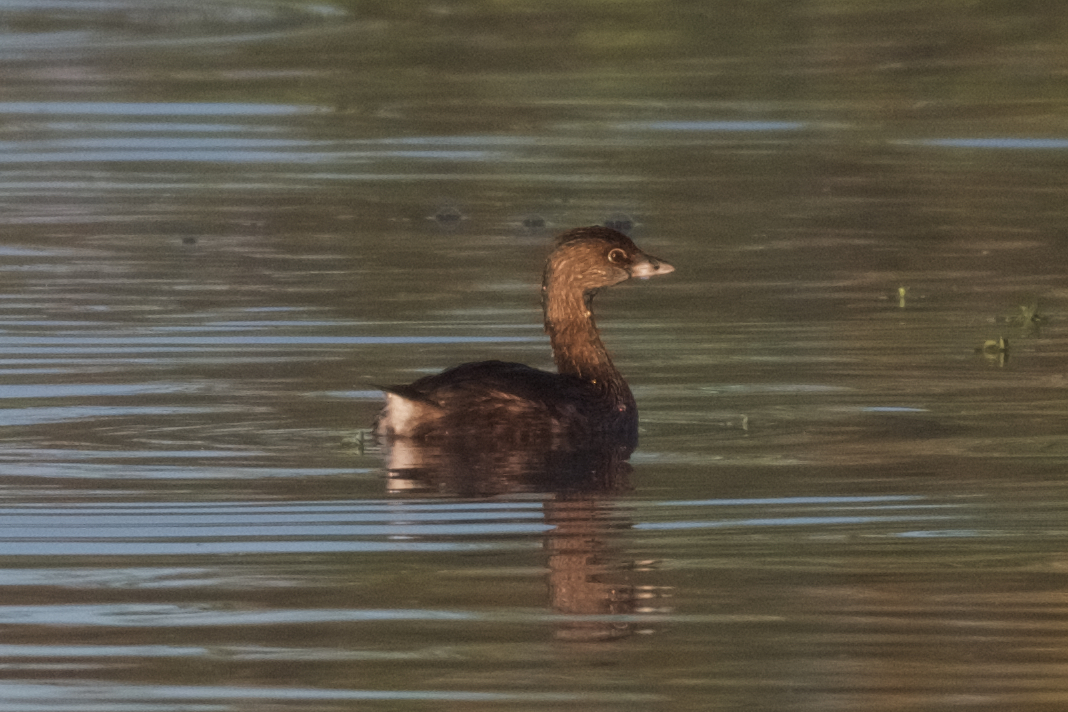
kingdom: Animalia
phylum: Chordata
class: Aves
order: Podicipediformes
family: Podicipedidae
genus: Podilymbus
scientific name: Podilymbus podiceps
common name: Pied-billed grebe
